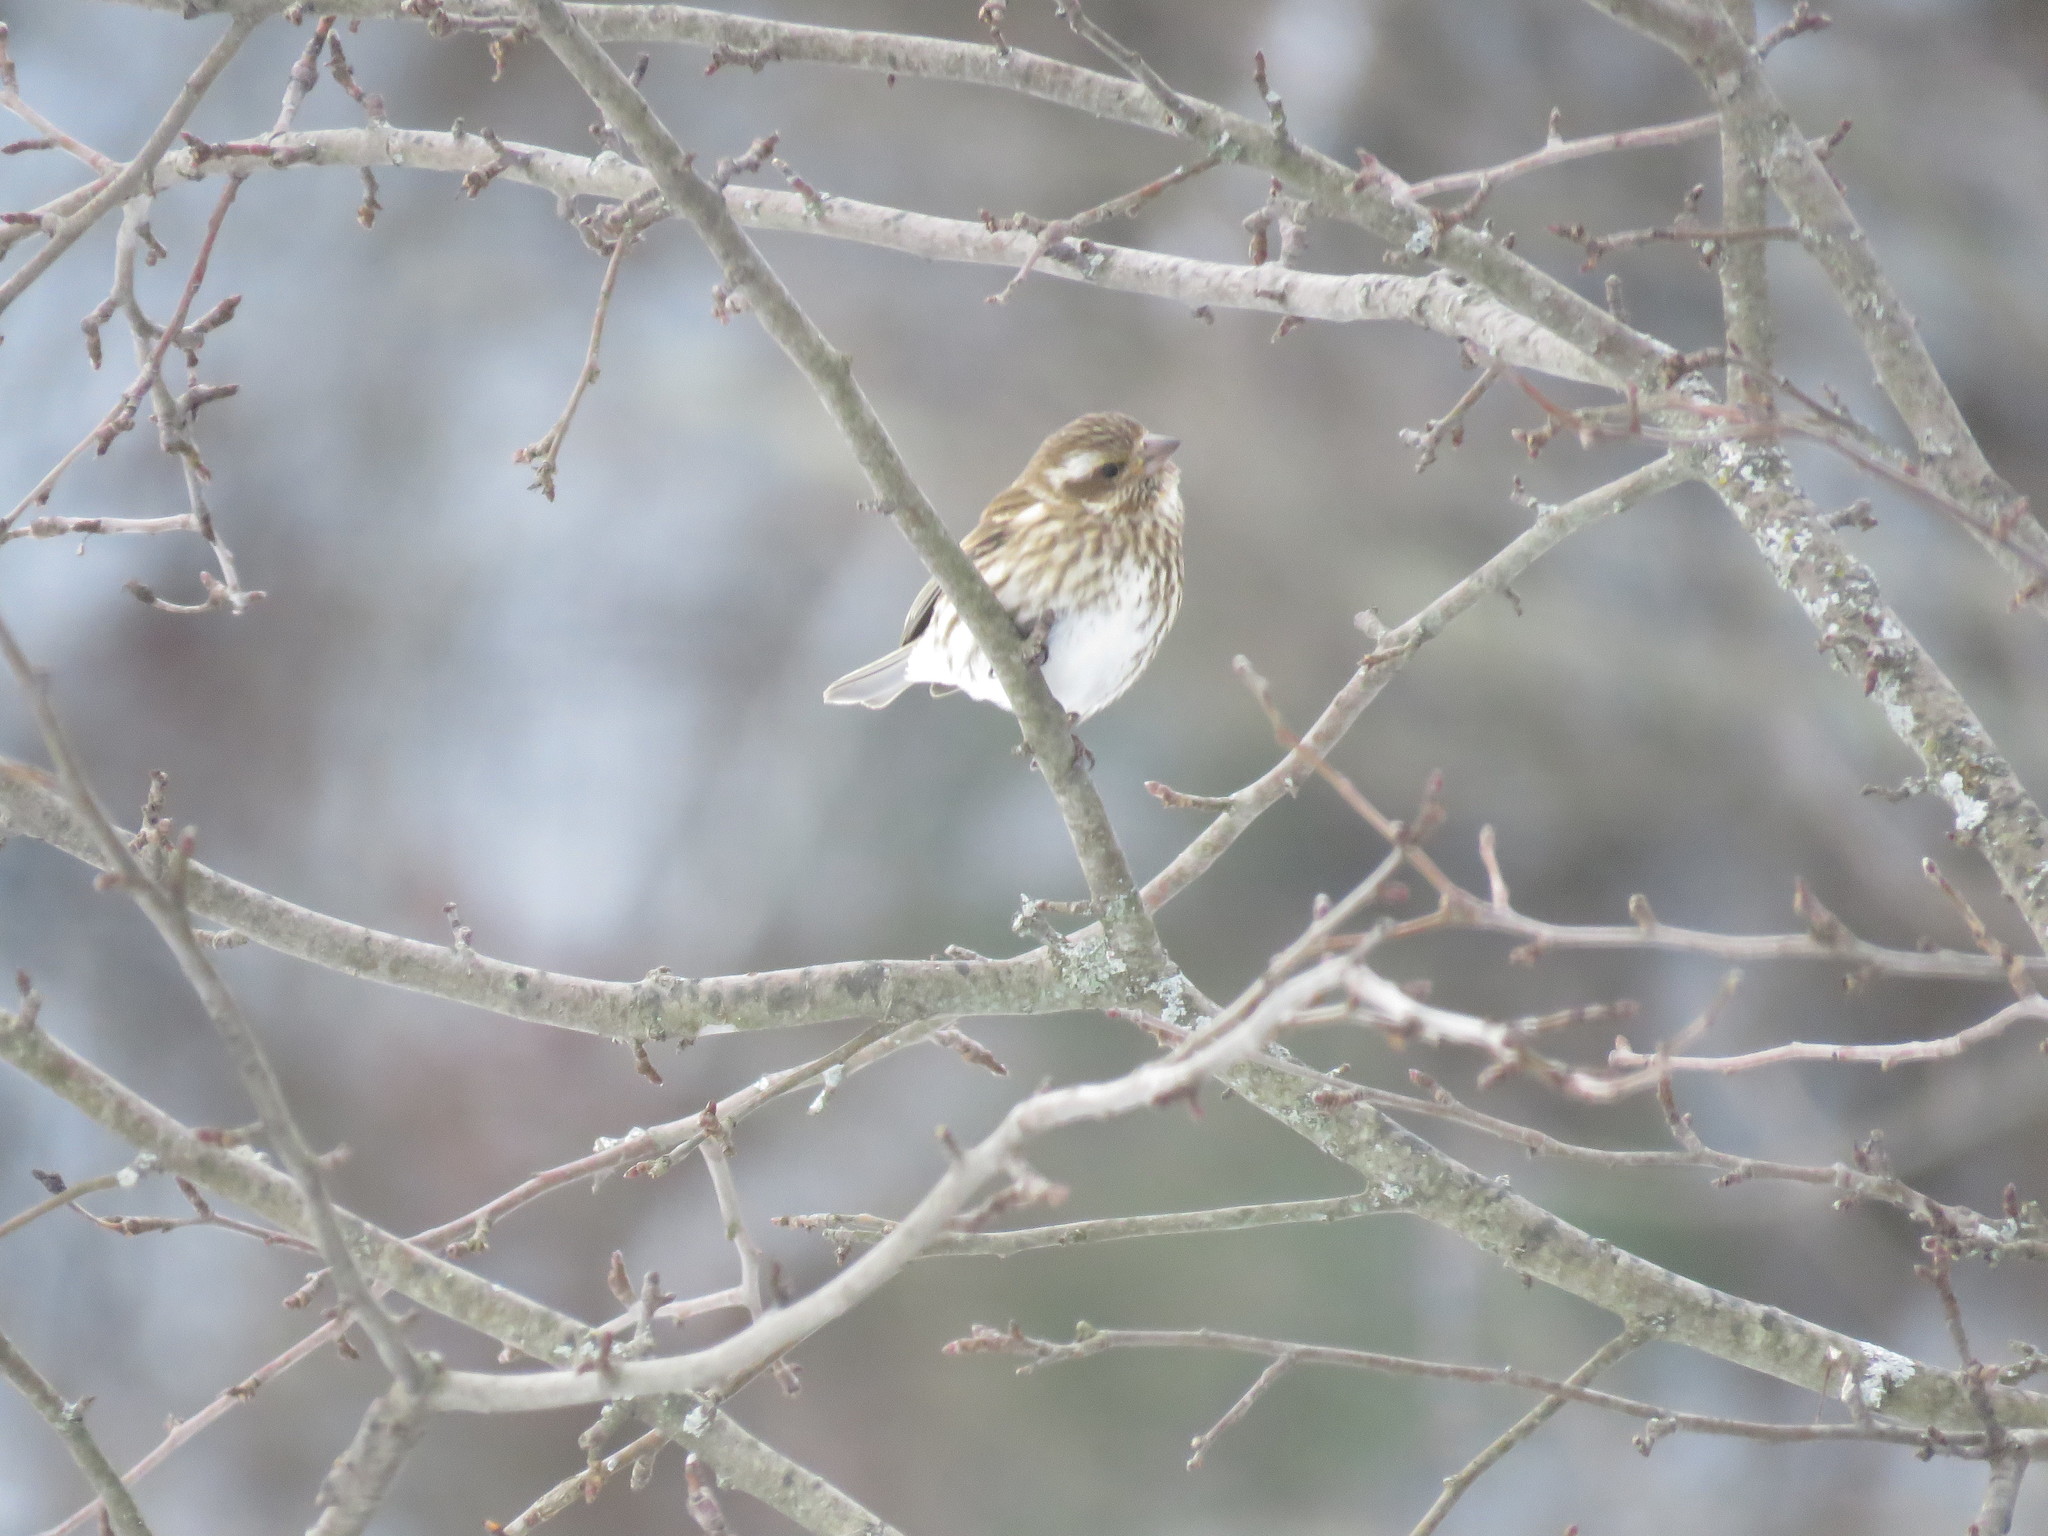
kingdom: Animalia
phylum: Chordata
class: Aves
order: Passeriformes
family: Fringillidae
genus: Haemorhous
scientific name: Haemorhous purpureus
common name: Purple finch
